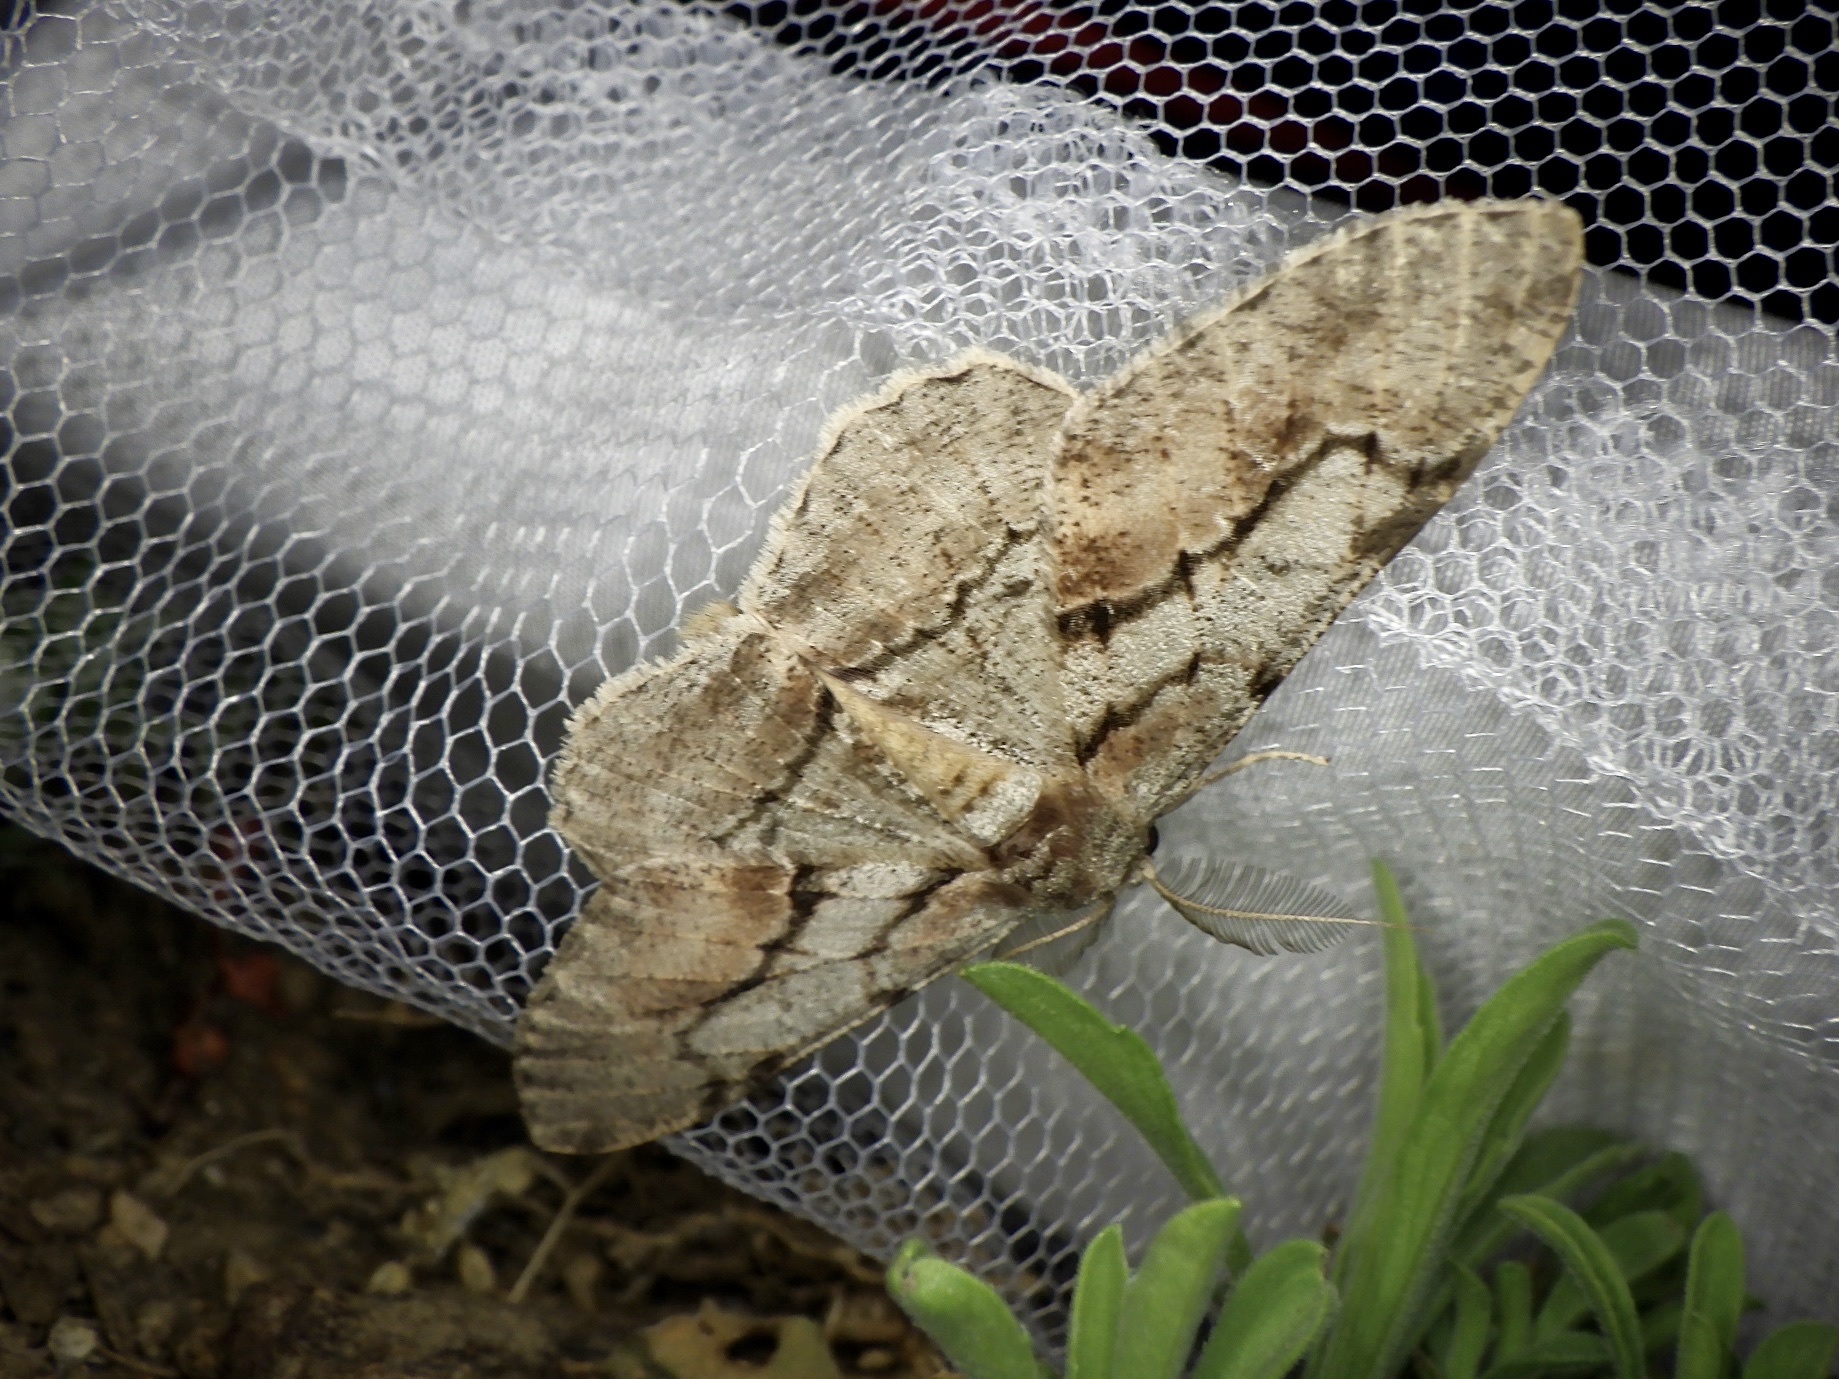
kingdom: Animalia
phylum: Arthropoda
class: Insecta
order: Lepidoptera
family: Geometridae
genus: Phthonosema
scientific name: Phthonosema tendinosaria
